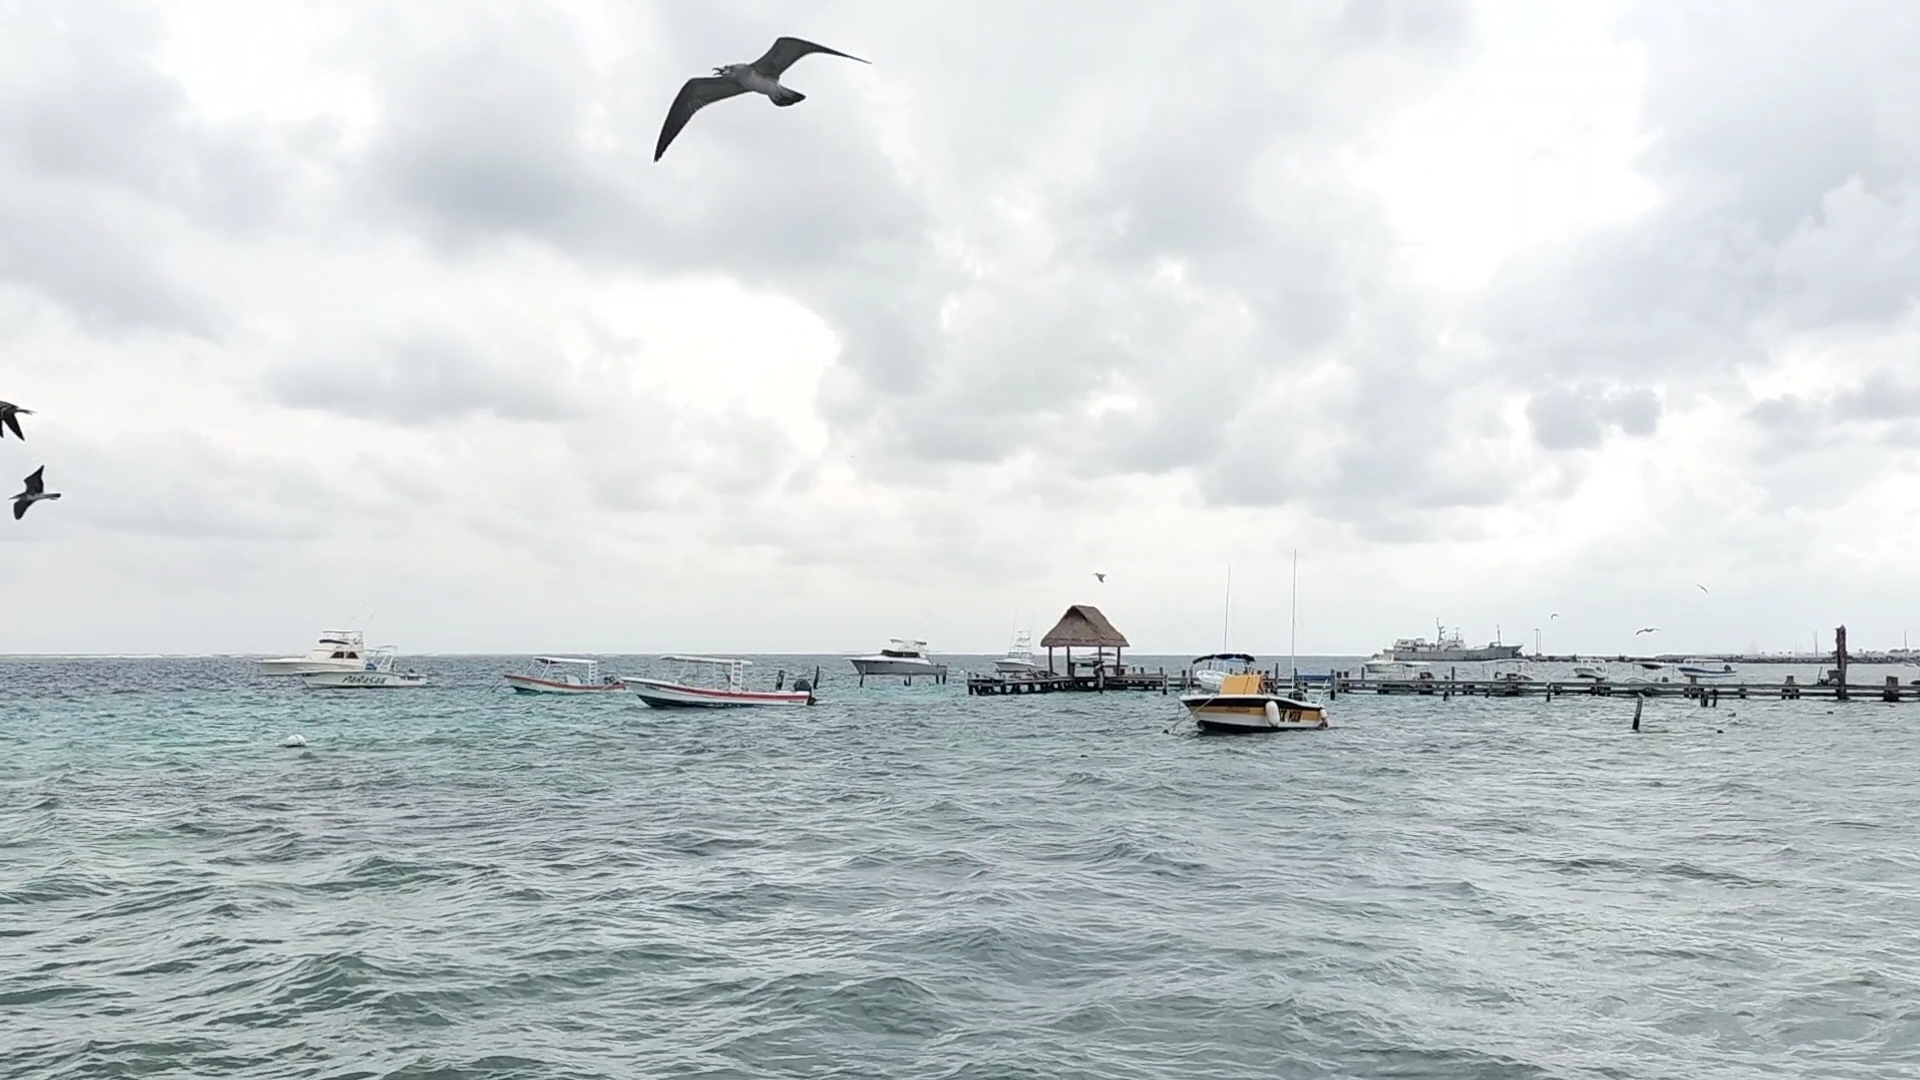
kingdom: Animalia
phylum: Chordata
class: Aves
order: Charadriiformes
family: Laridae
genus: Leucophaeus
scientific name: Leucophaeus atricilla
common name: Laughing gull
